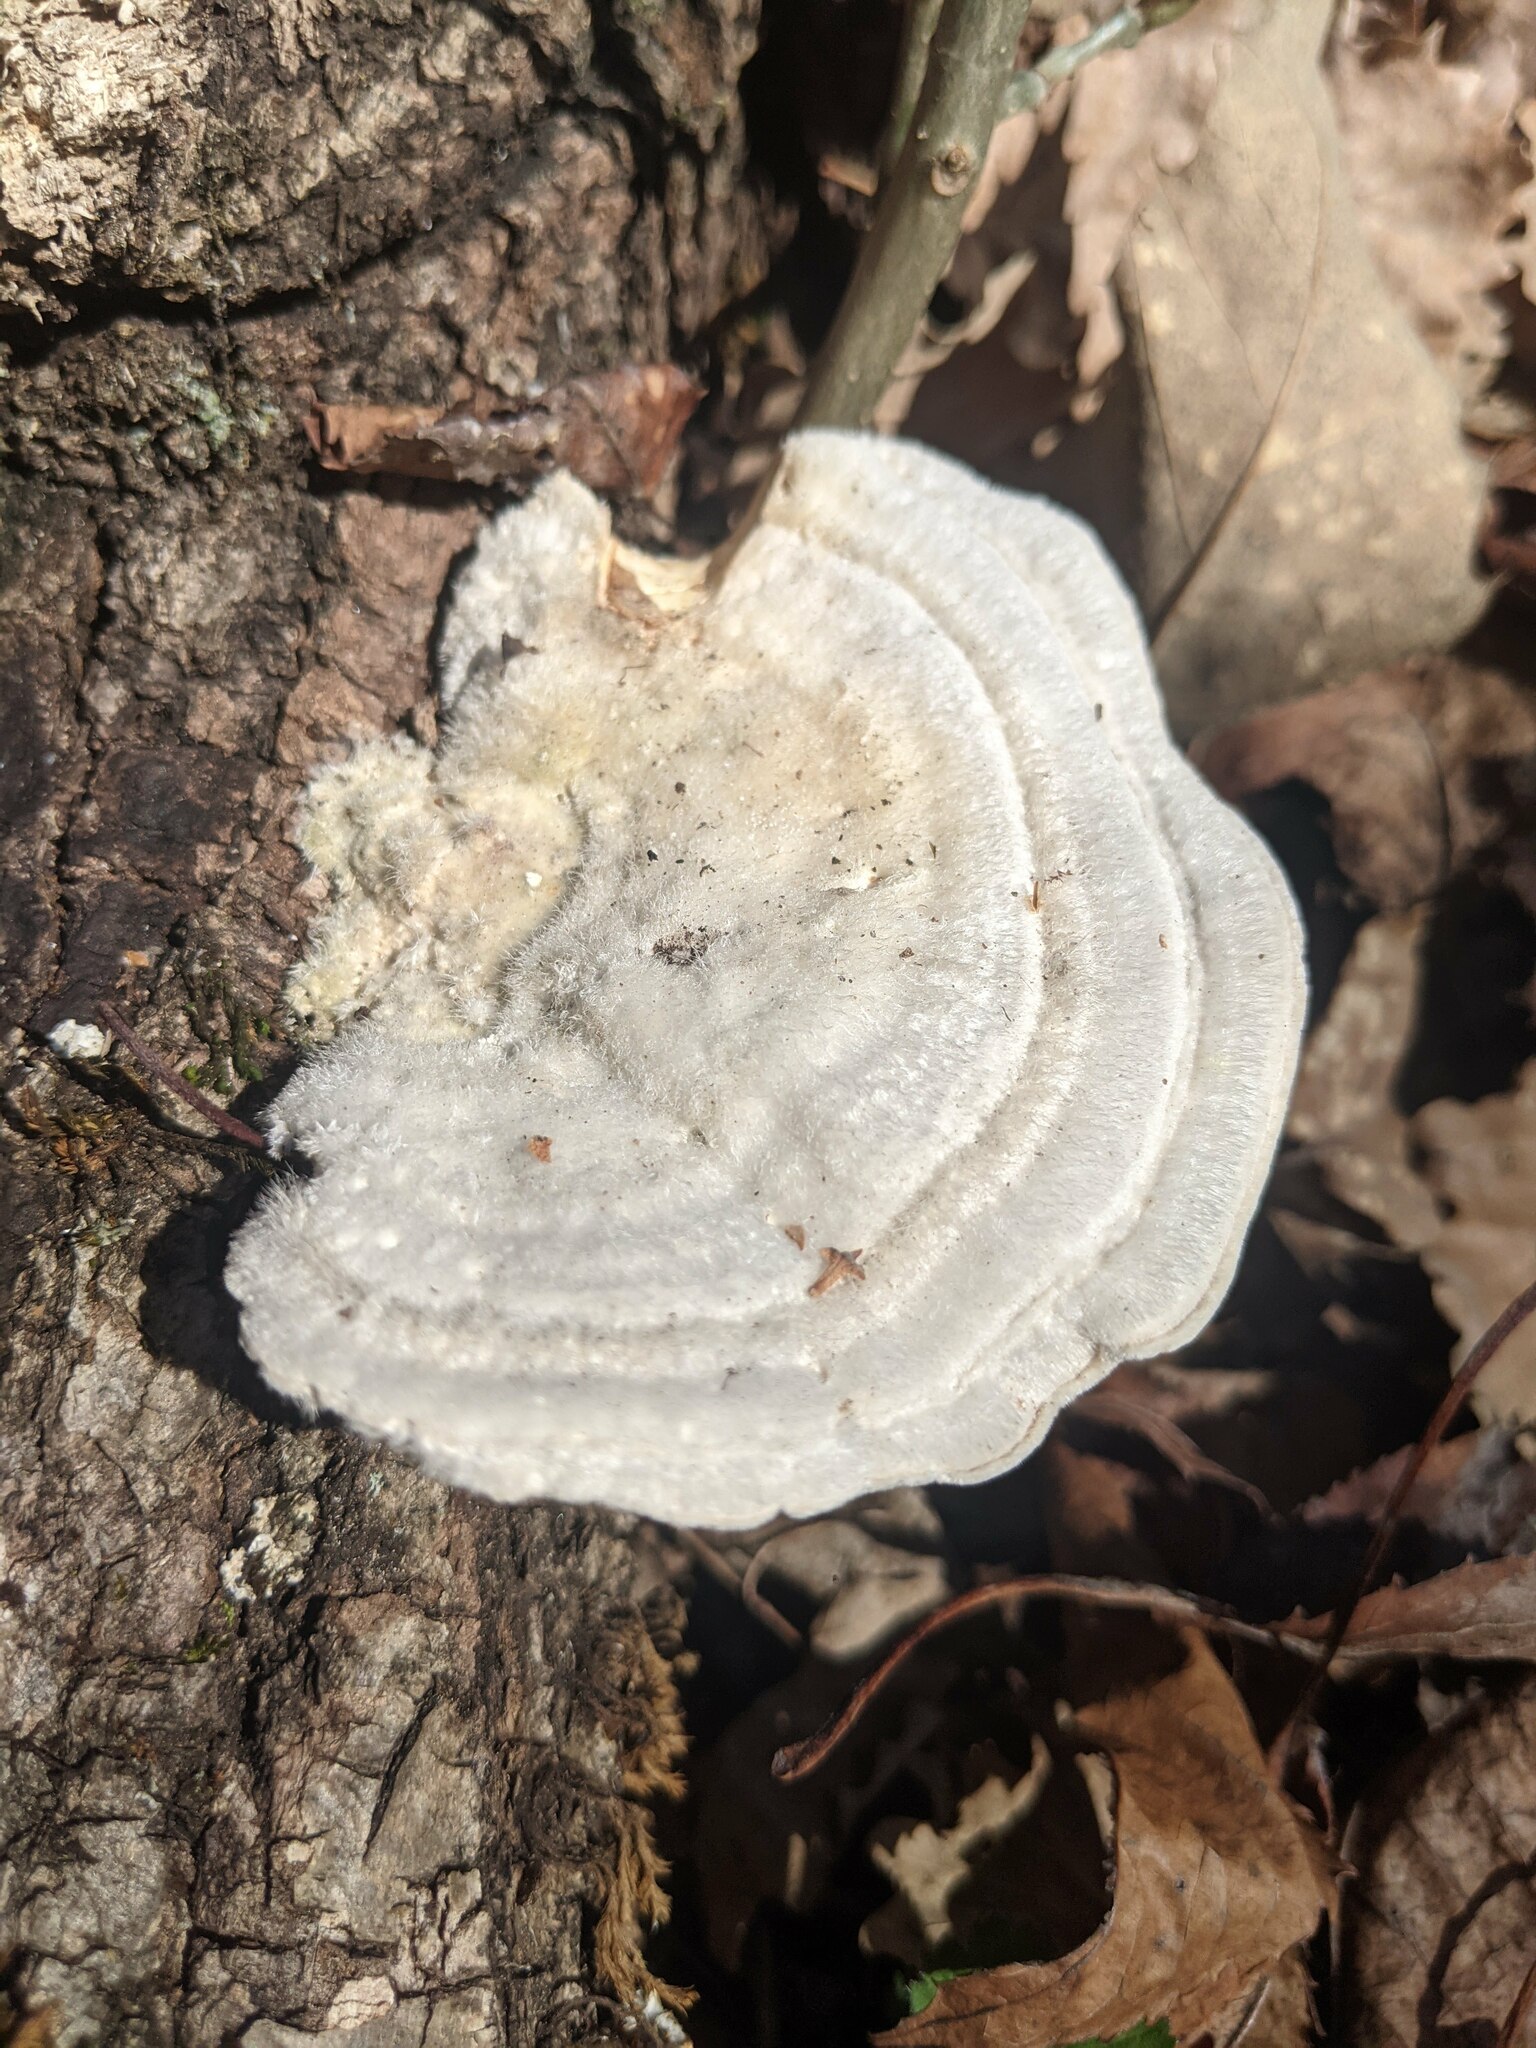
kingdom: Fungi
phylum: Basidiomycota
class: Agaricomycetes
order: Polyporales
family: Polyporaceae
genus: Trametes
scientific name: Trametes hirsuta
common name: Hairy bracket
